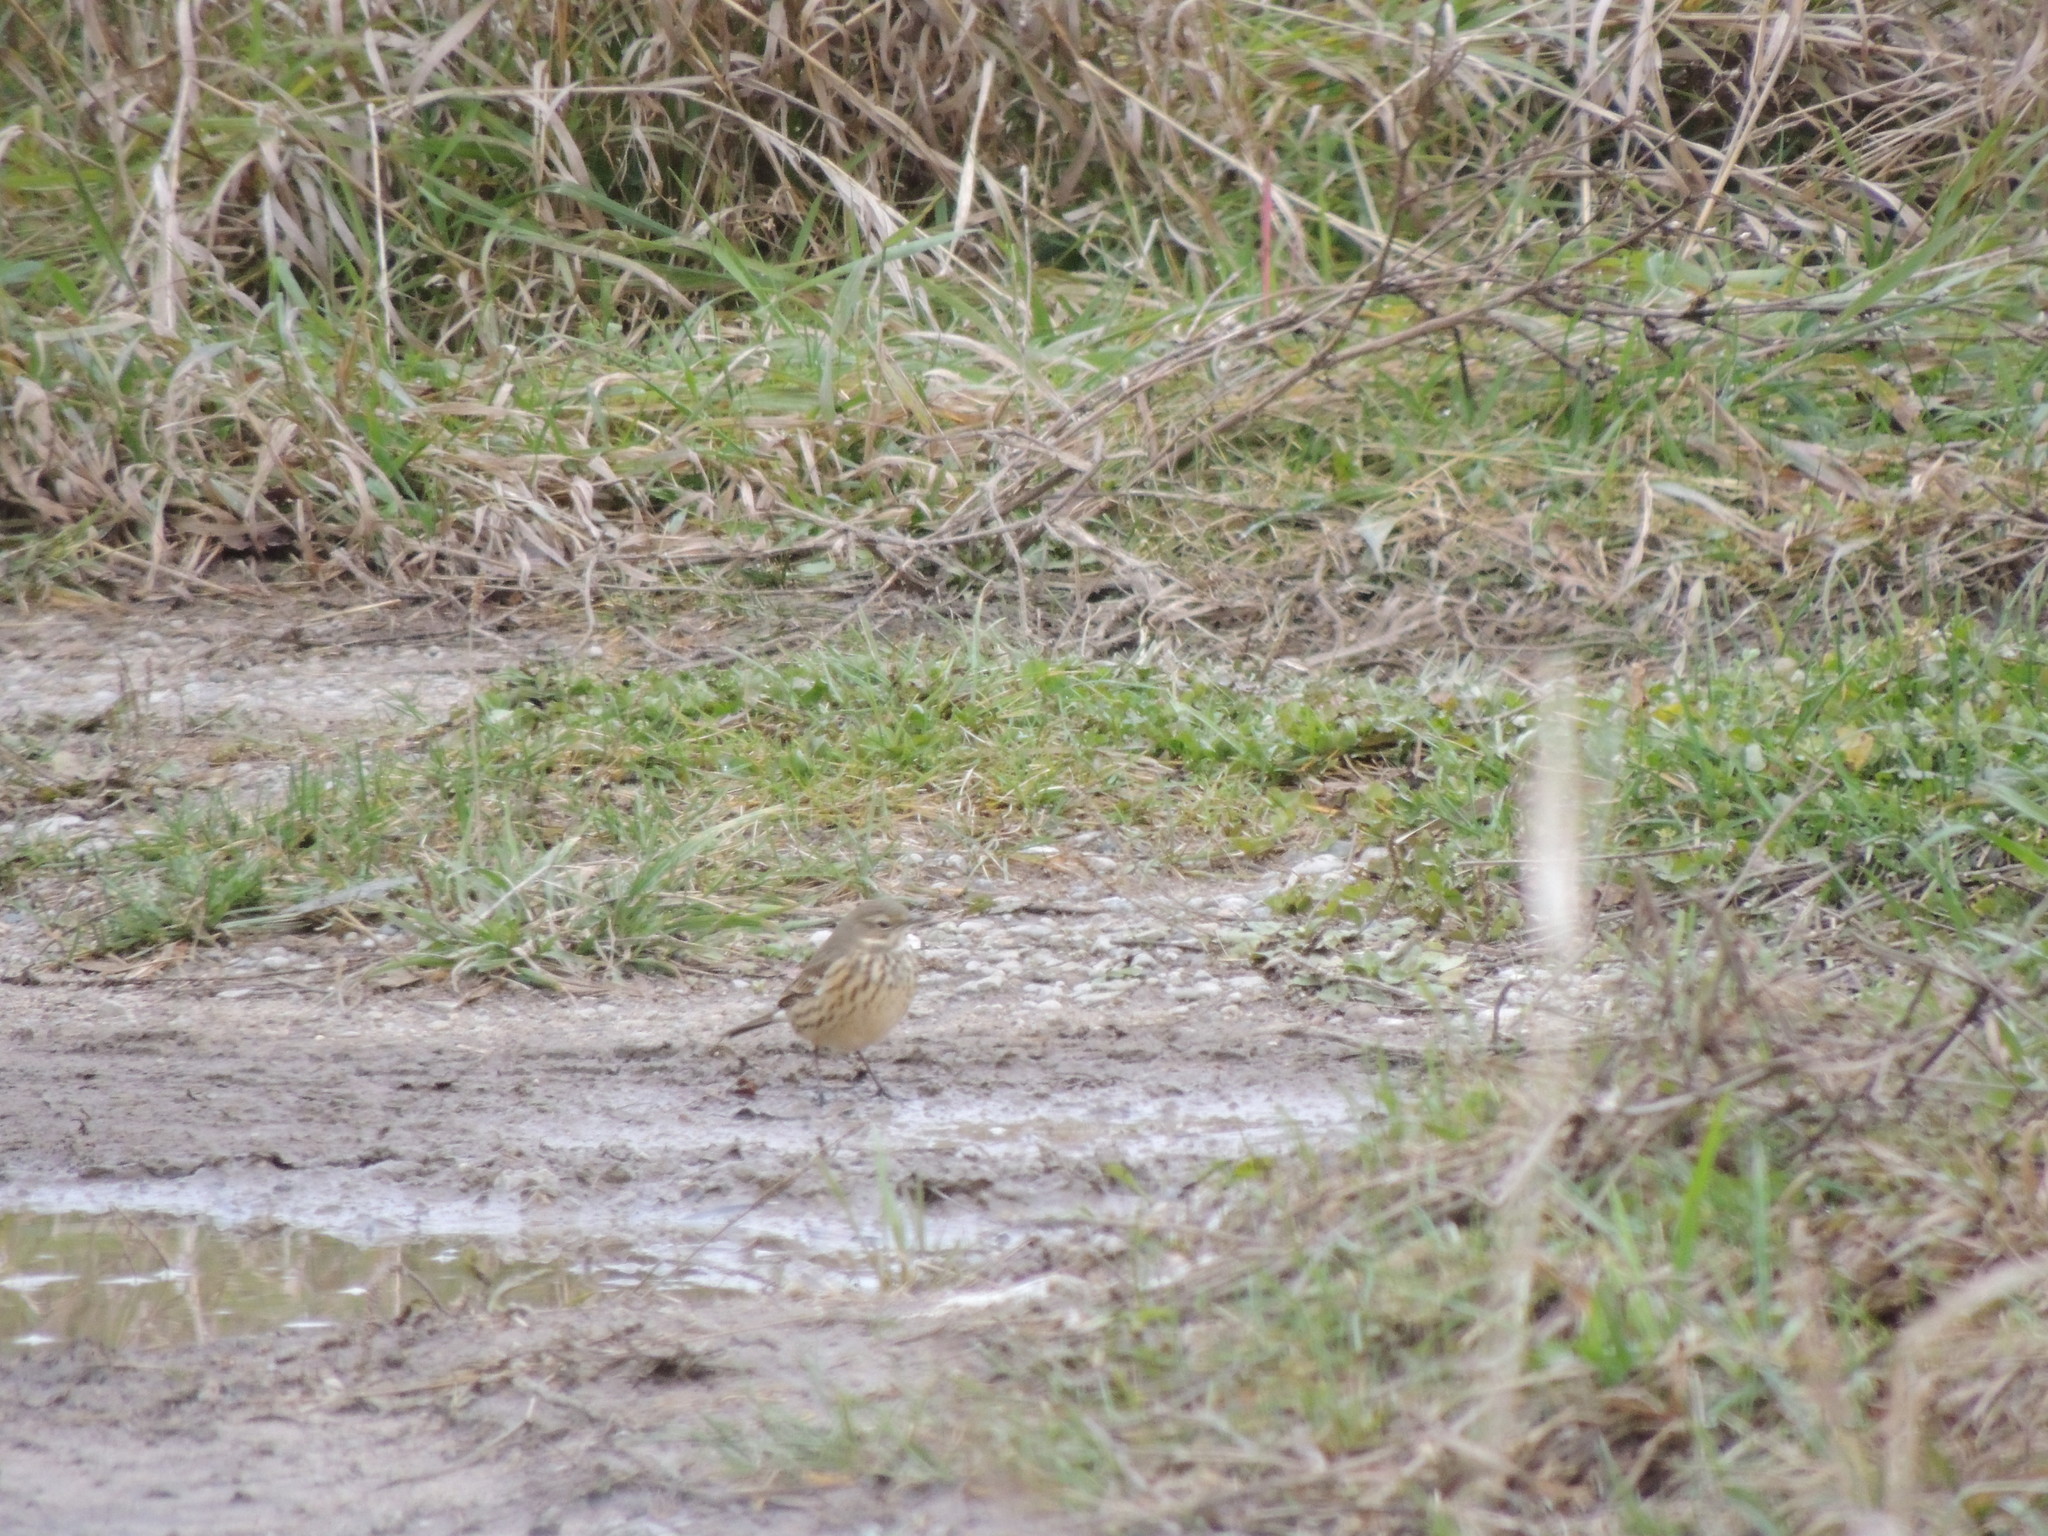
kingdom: Animalia
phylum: Chordata
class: Aves
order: Passeriformes
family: Motacillidae
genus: Anthus
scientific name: Anthus rubescens
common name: Buff-bellied pipit
